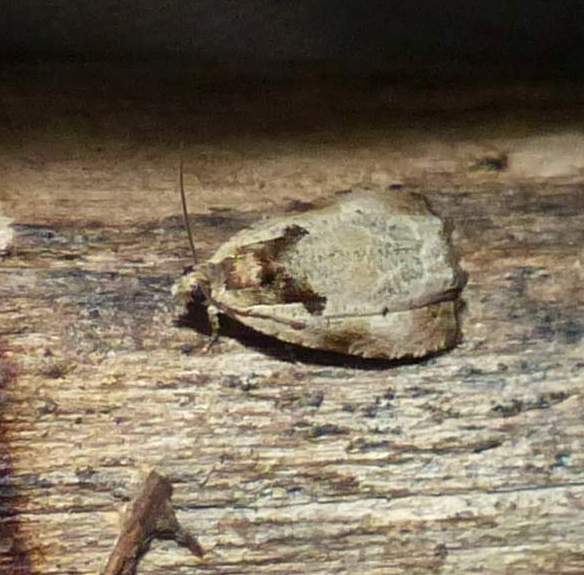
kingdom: Animalia
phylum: Arthropoda
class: Insecta
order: Lepidoptera
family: Tortricidae
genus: Olethreutes
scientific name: Olethreutes punctanum
